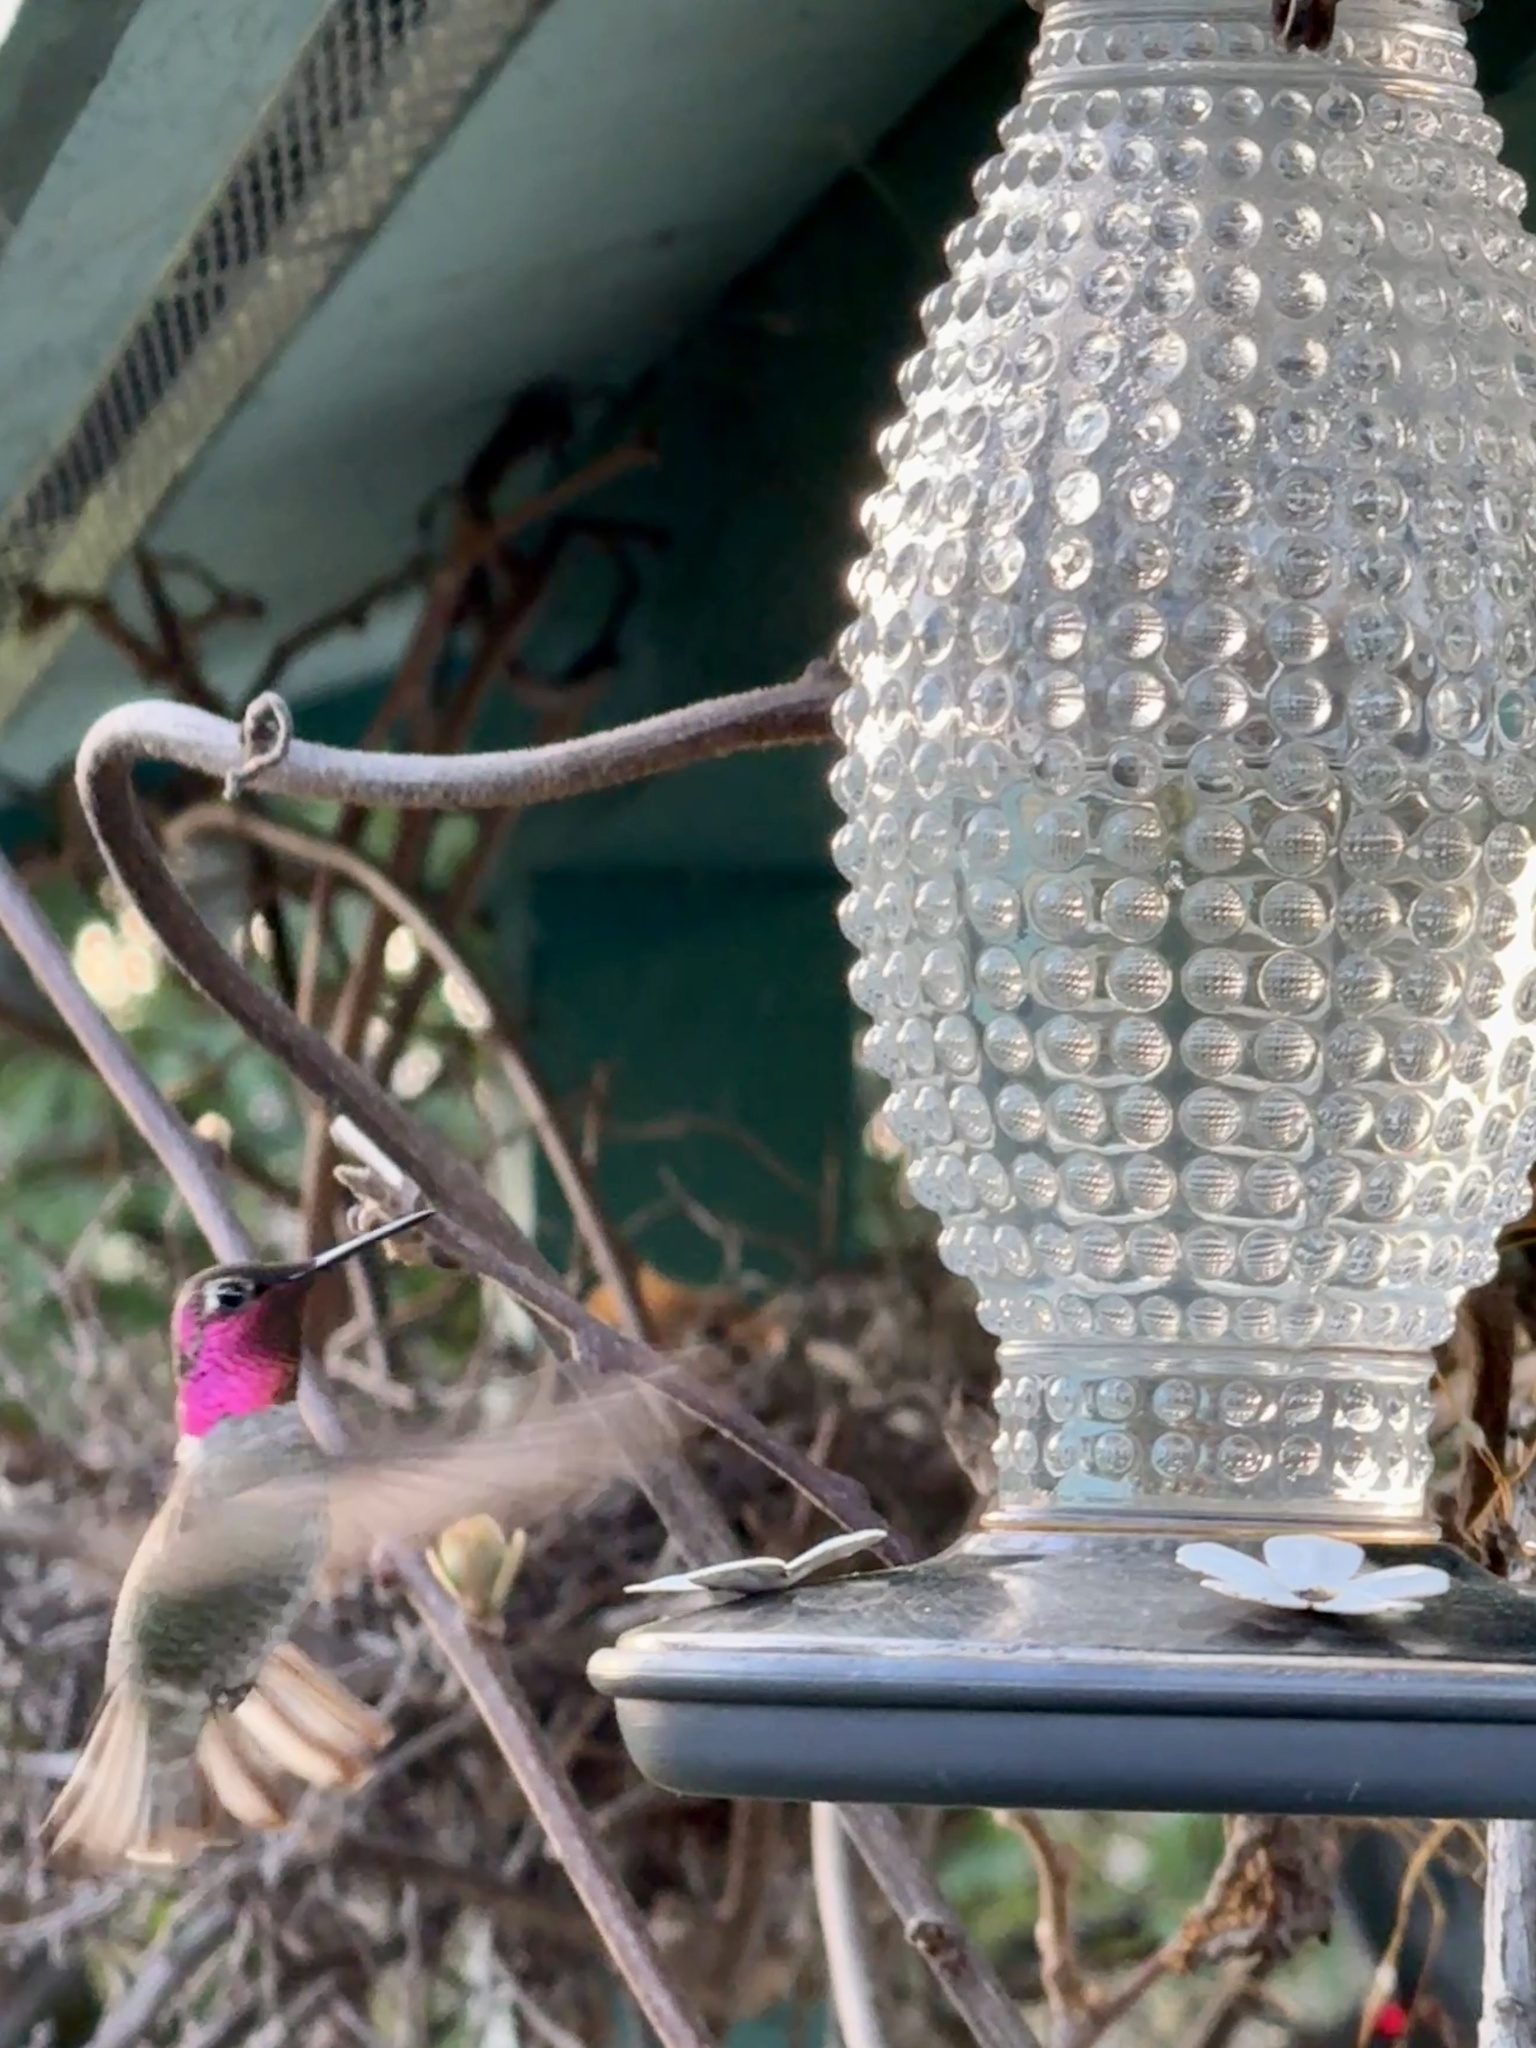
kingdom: Animalia
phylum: Chordata
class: Aves
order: Apodiformes
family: Trochilidae
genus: Calypte
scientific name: Calypte anna
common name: Anna's hummingbird
